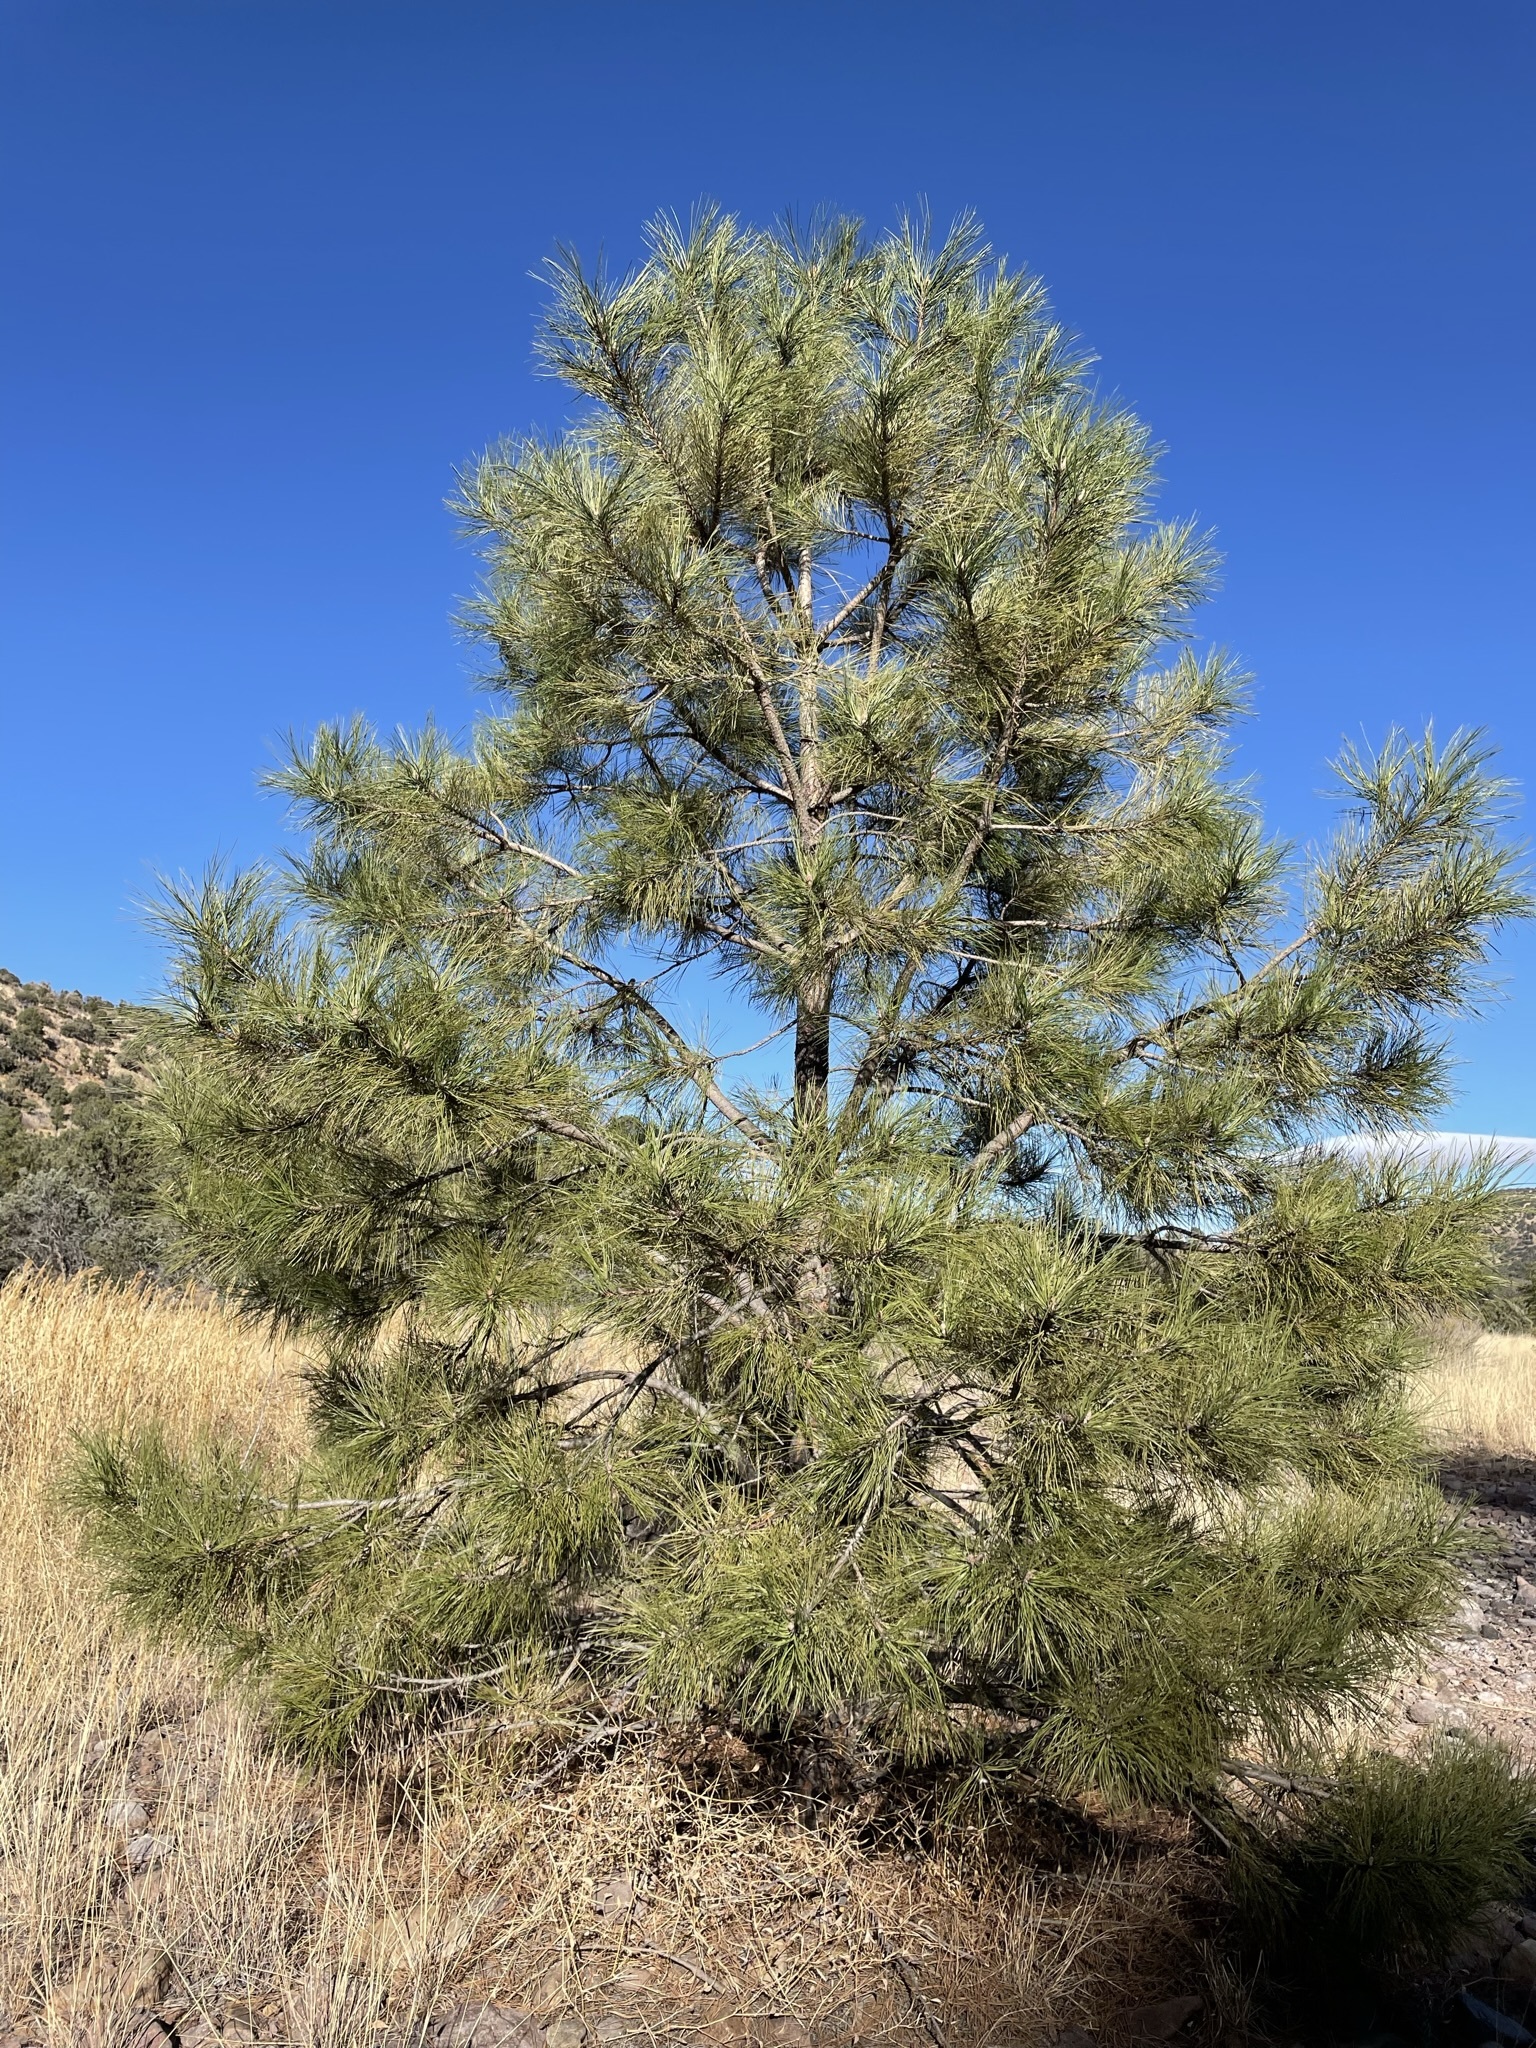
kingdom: Plantae
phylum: Tracheophyta
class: Pinopsida
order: Pinales
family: Pinaceae
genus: Pinus
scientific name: Pinus ponderosa
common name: Western yellow-pine
